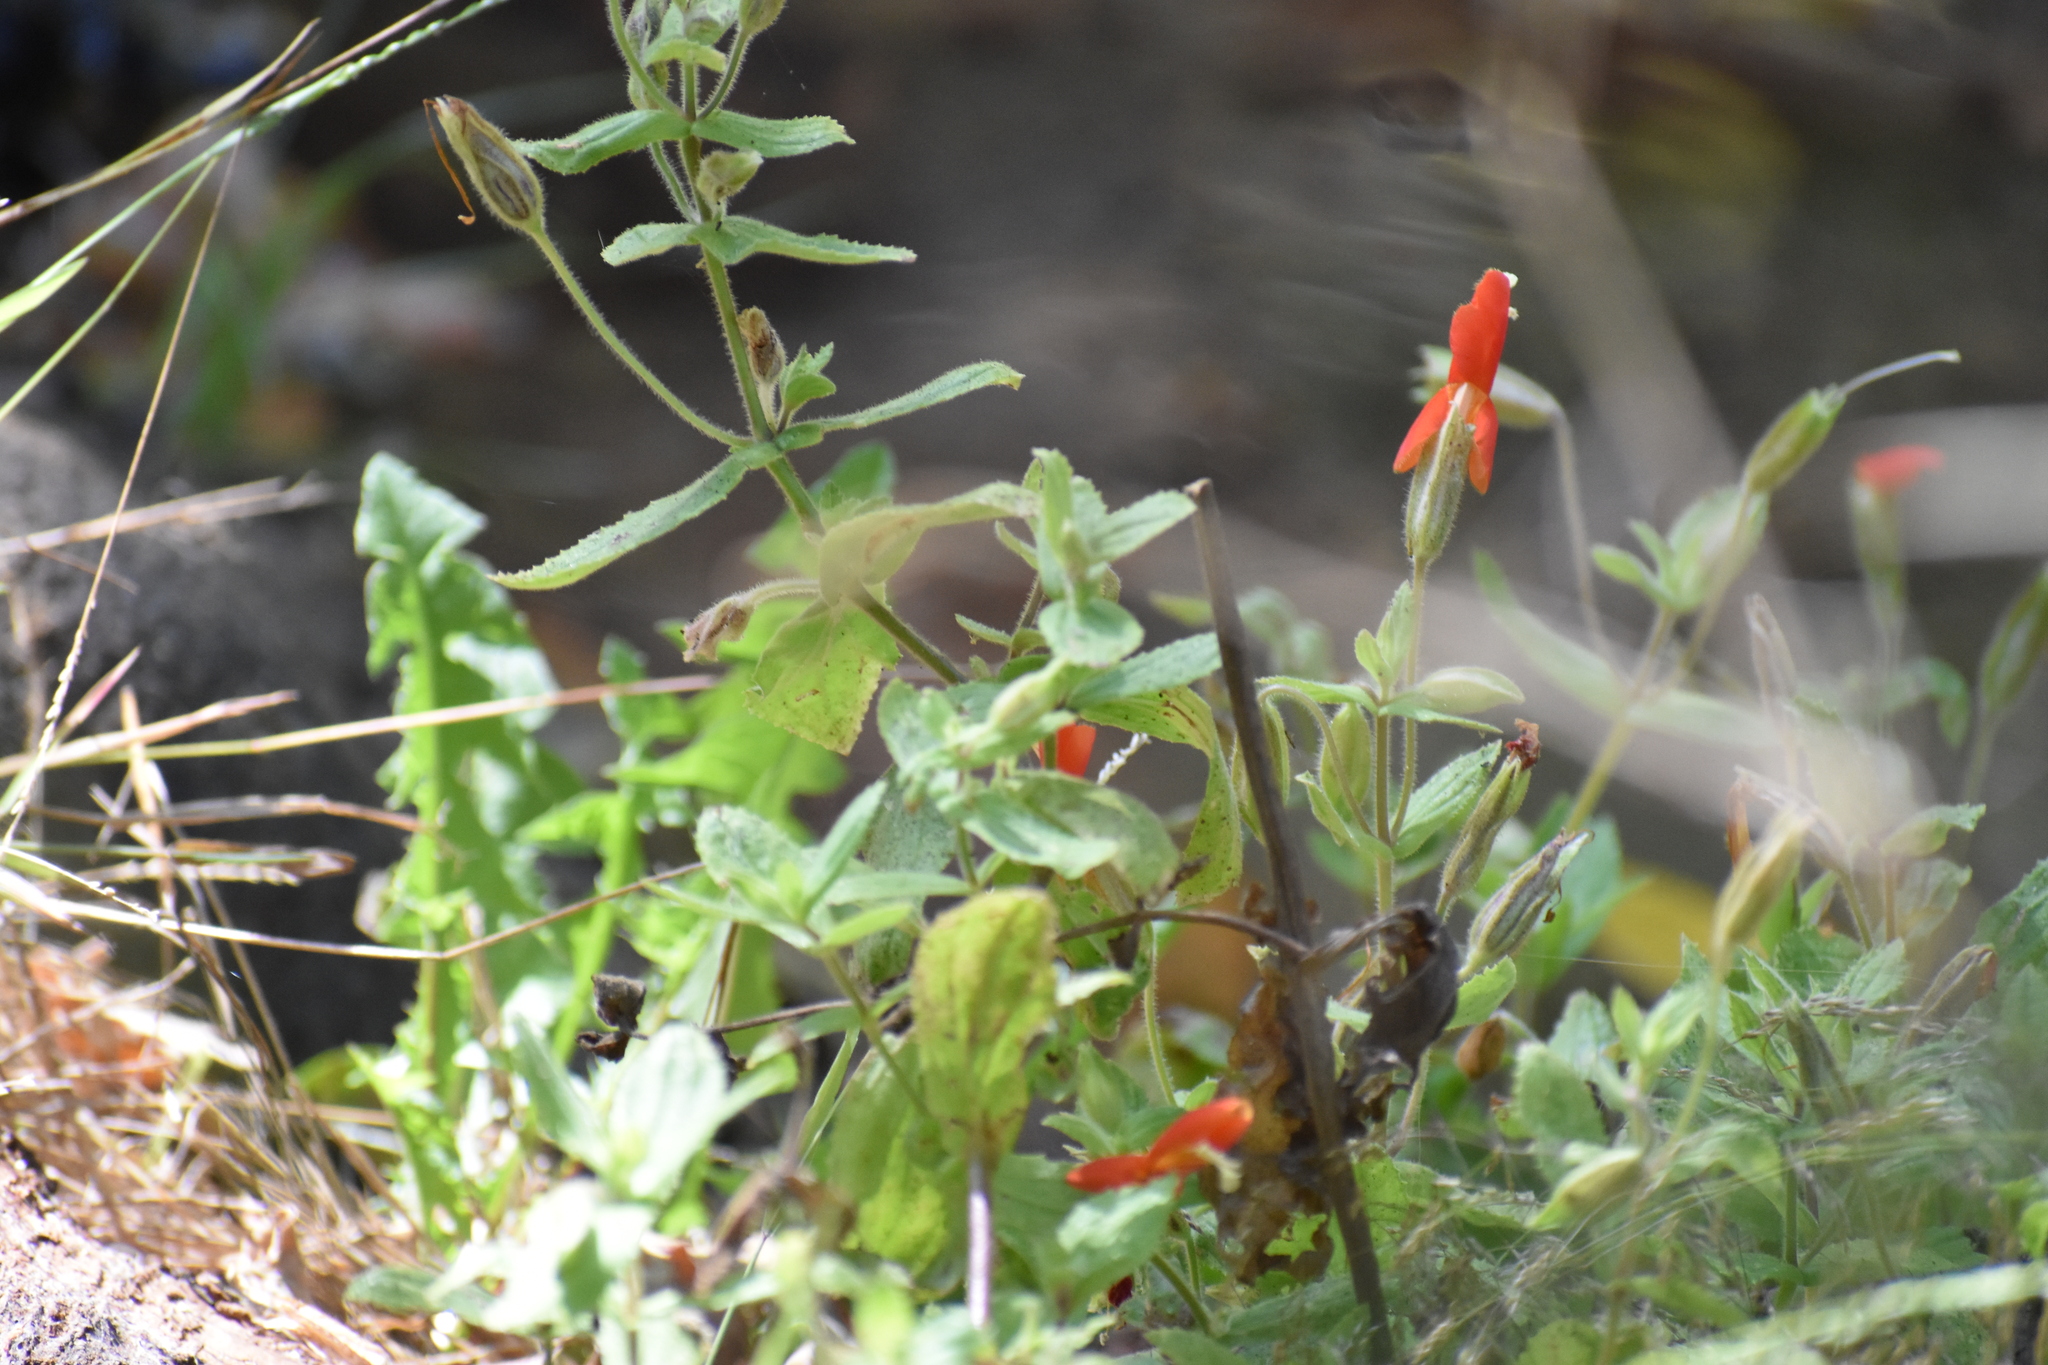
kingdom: Plantae
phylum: Tracheophyta
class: Magnoliopsida
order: Lamiales
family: Phrymaceae
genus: Erythranthe
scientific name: Erythranthe cardinalis
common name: Scarlet monkey-flower
